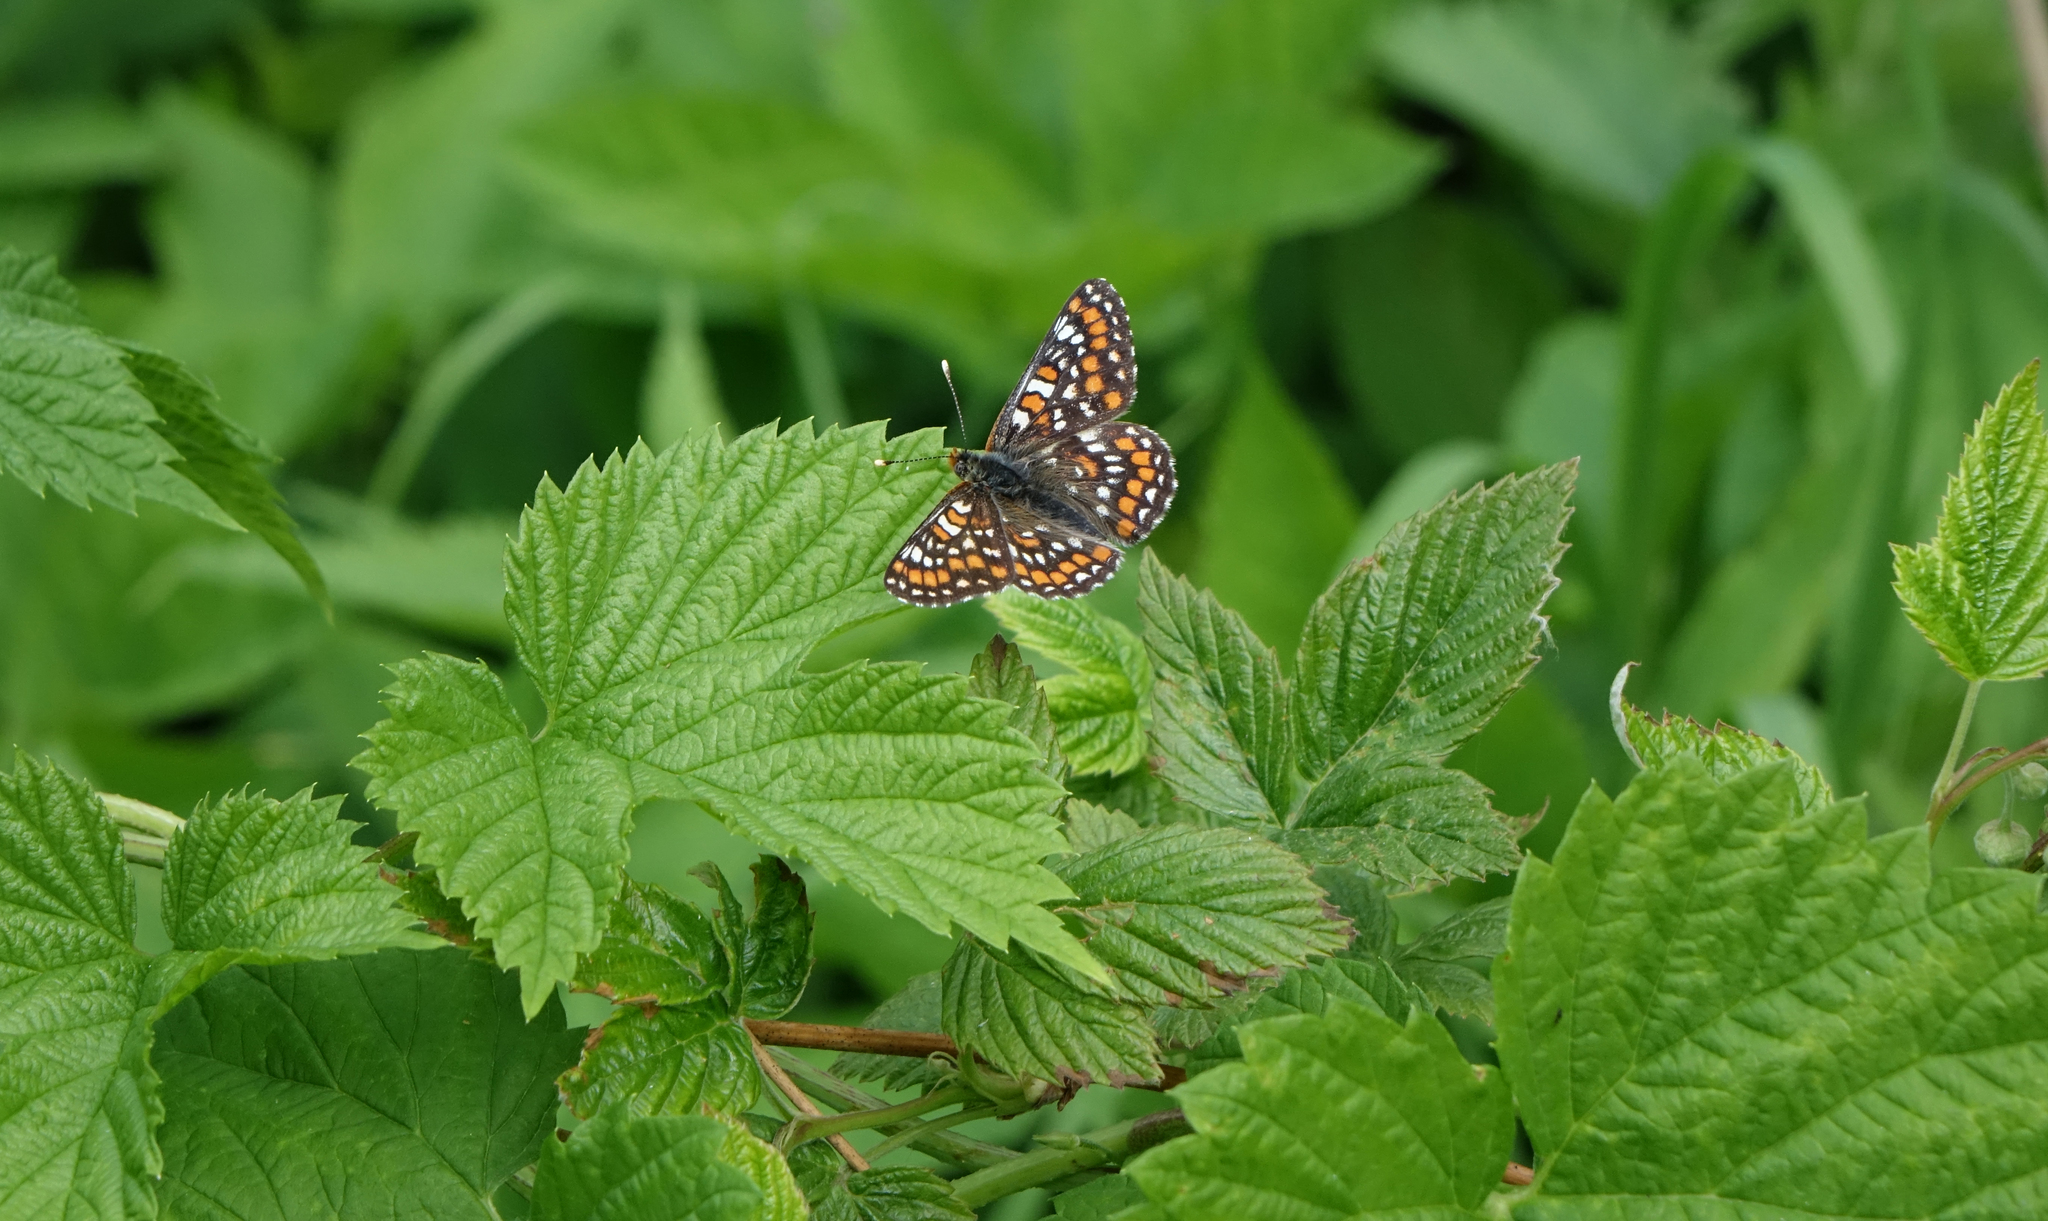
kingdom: Animalia
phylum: Arthropoda
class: Insecta
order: Lepidoptera
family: Nymphalidae
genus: Euphydryas
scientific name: Euphydryas maturna
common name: Scarce fritillary
